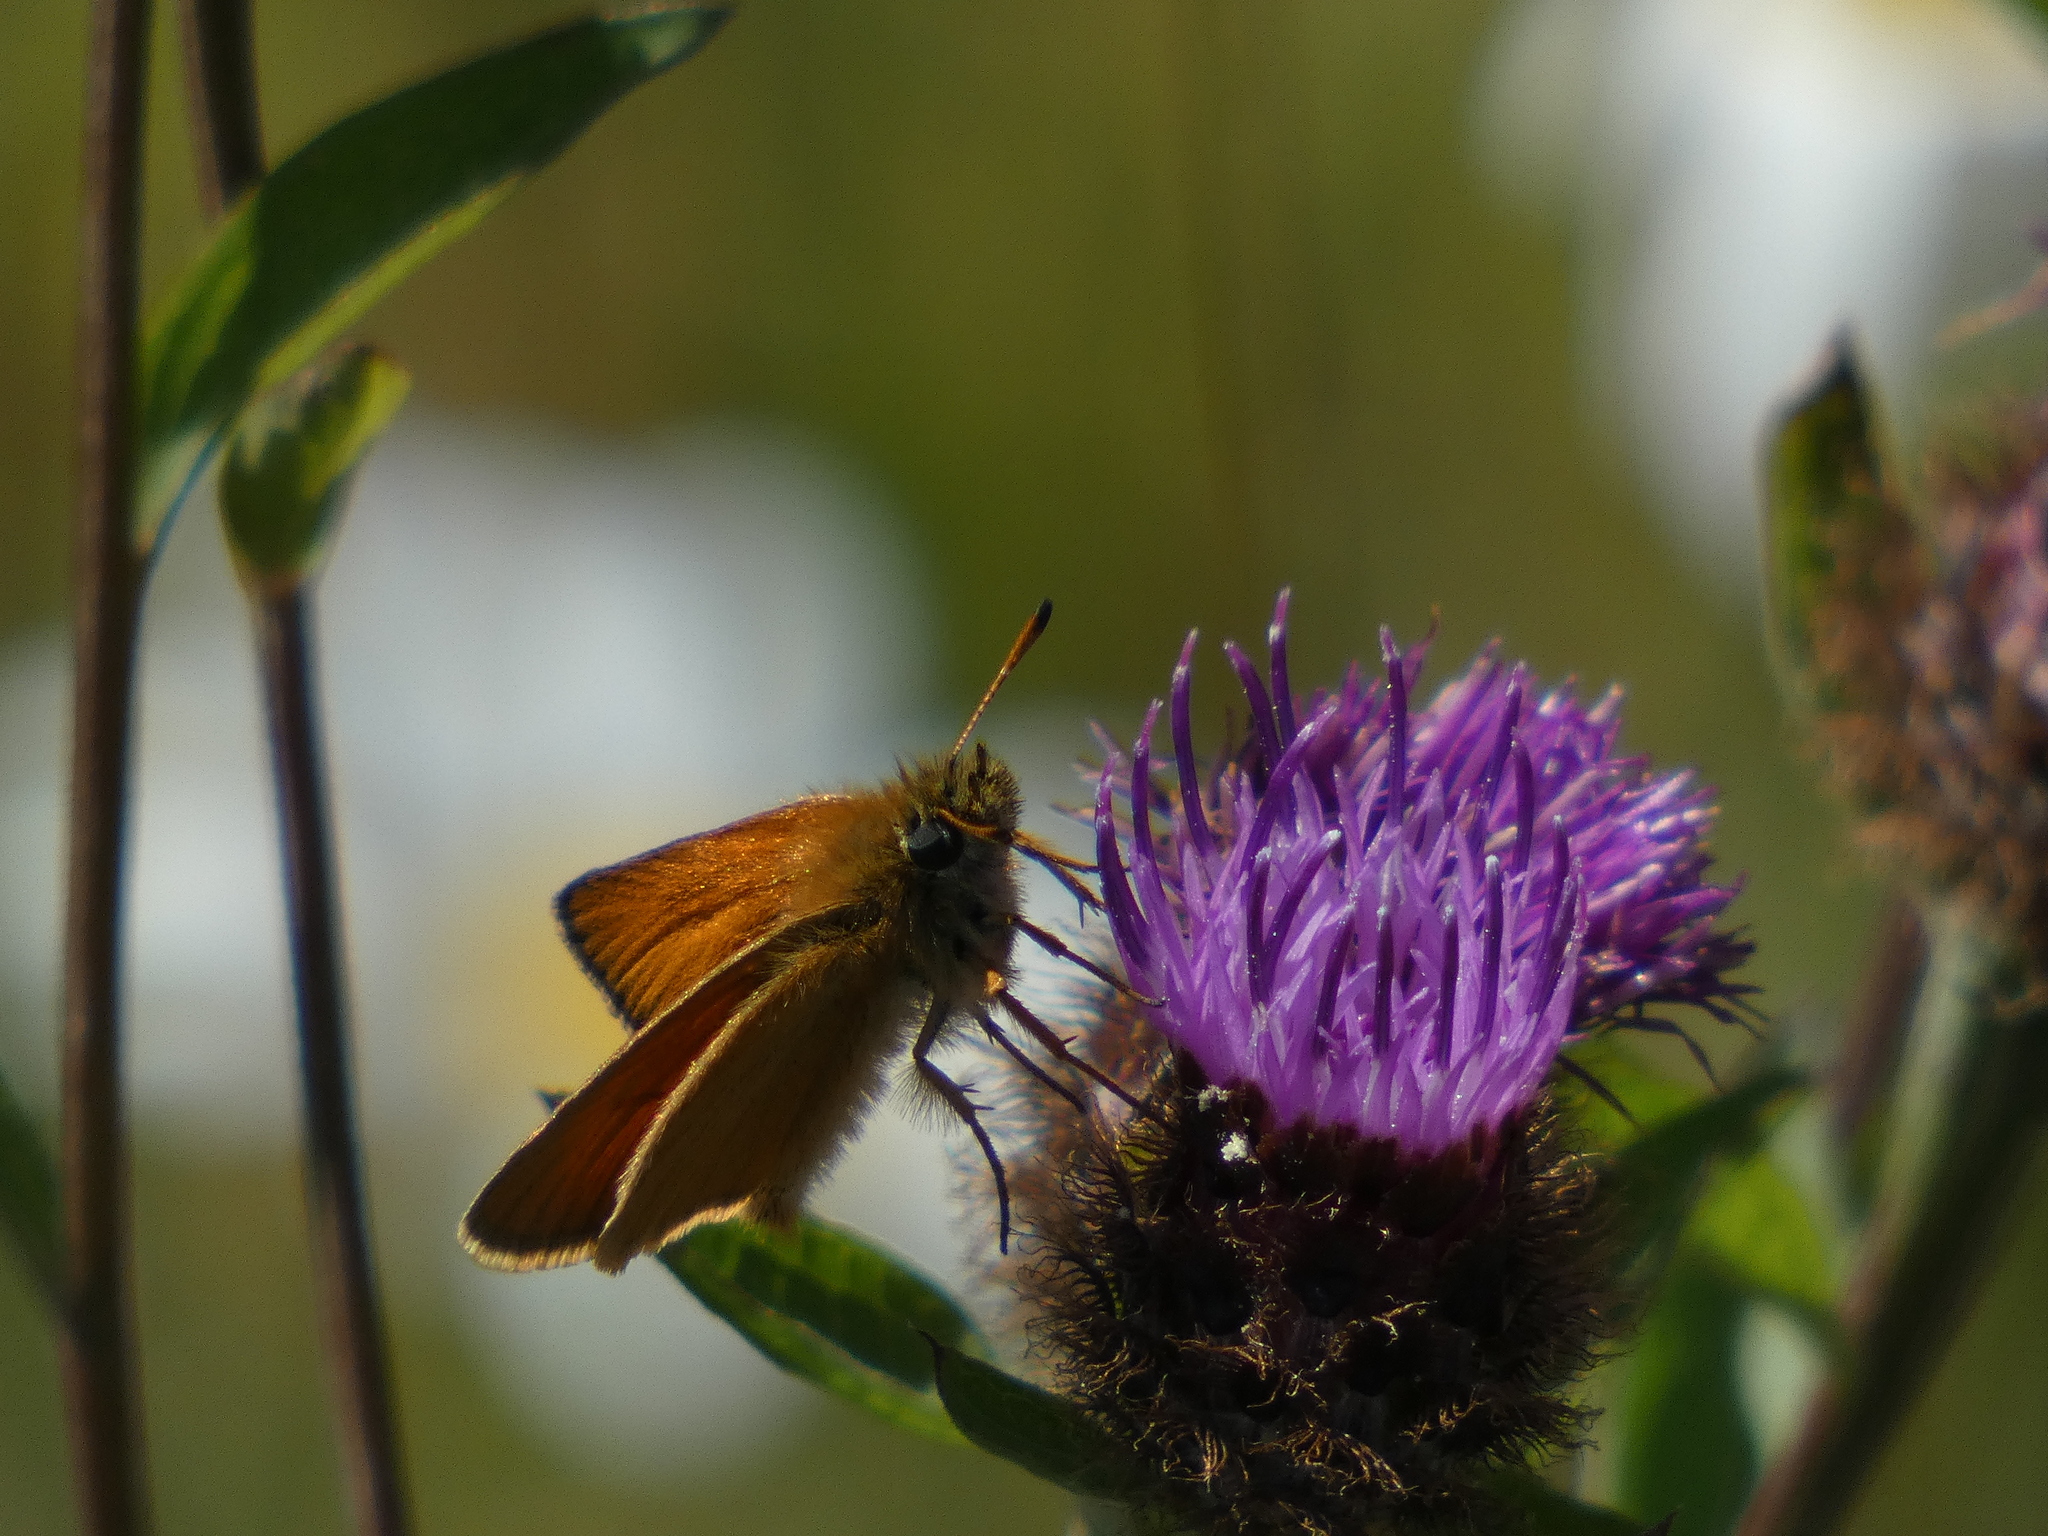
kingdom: Animalia
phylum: Arthropoda
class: Insecta
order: Lepidoptera
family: Hesperiidae
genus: Thymelicus
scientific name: Thymelicus lineola
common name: Essex skipper
